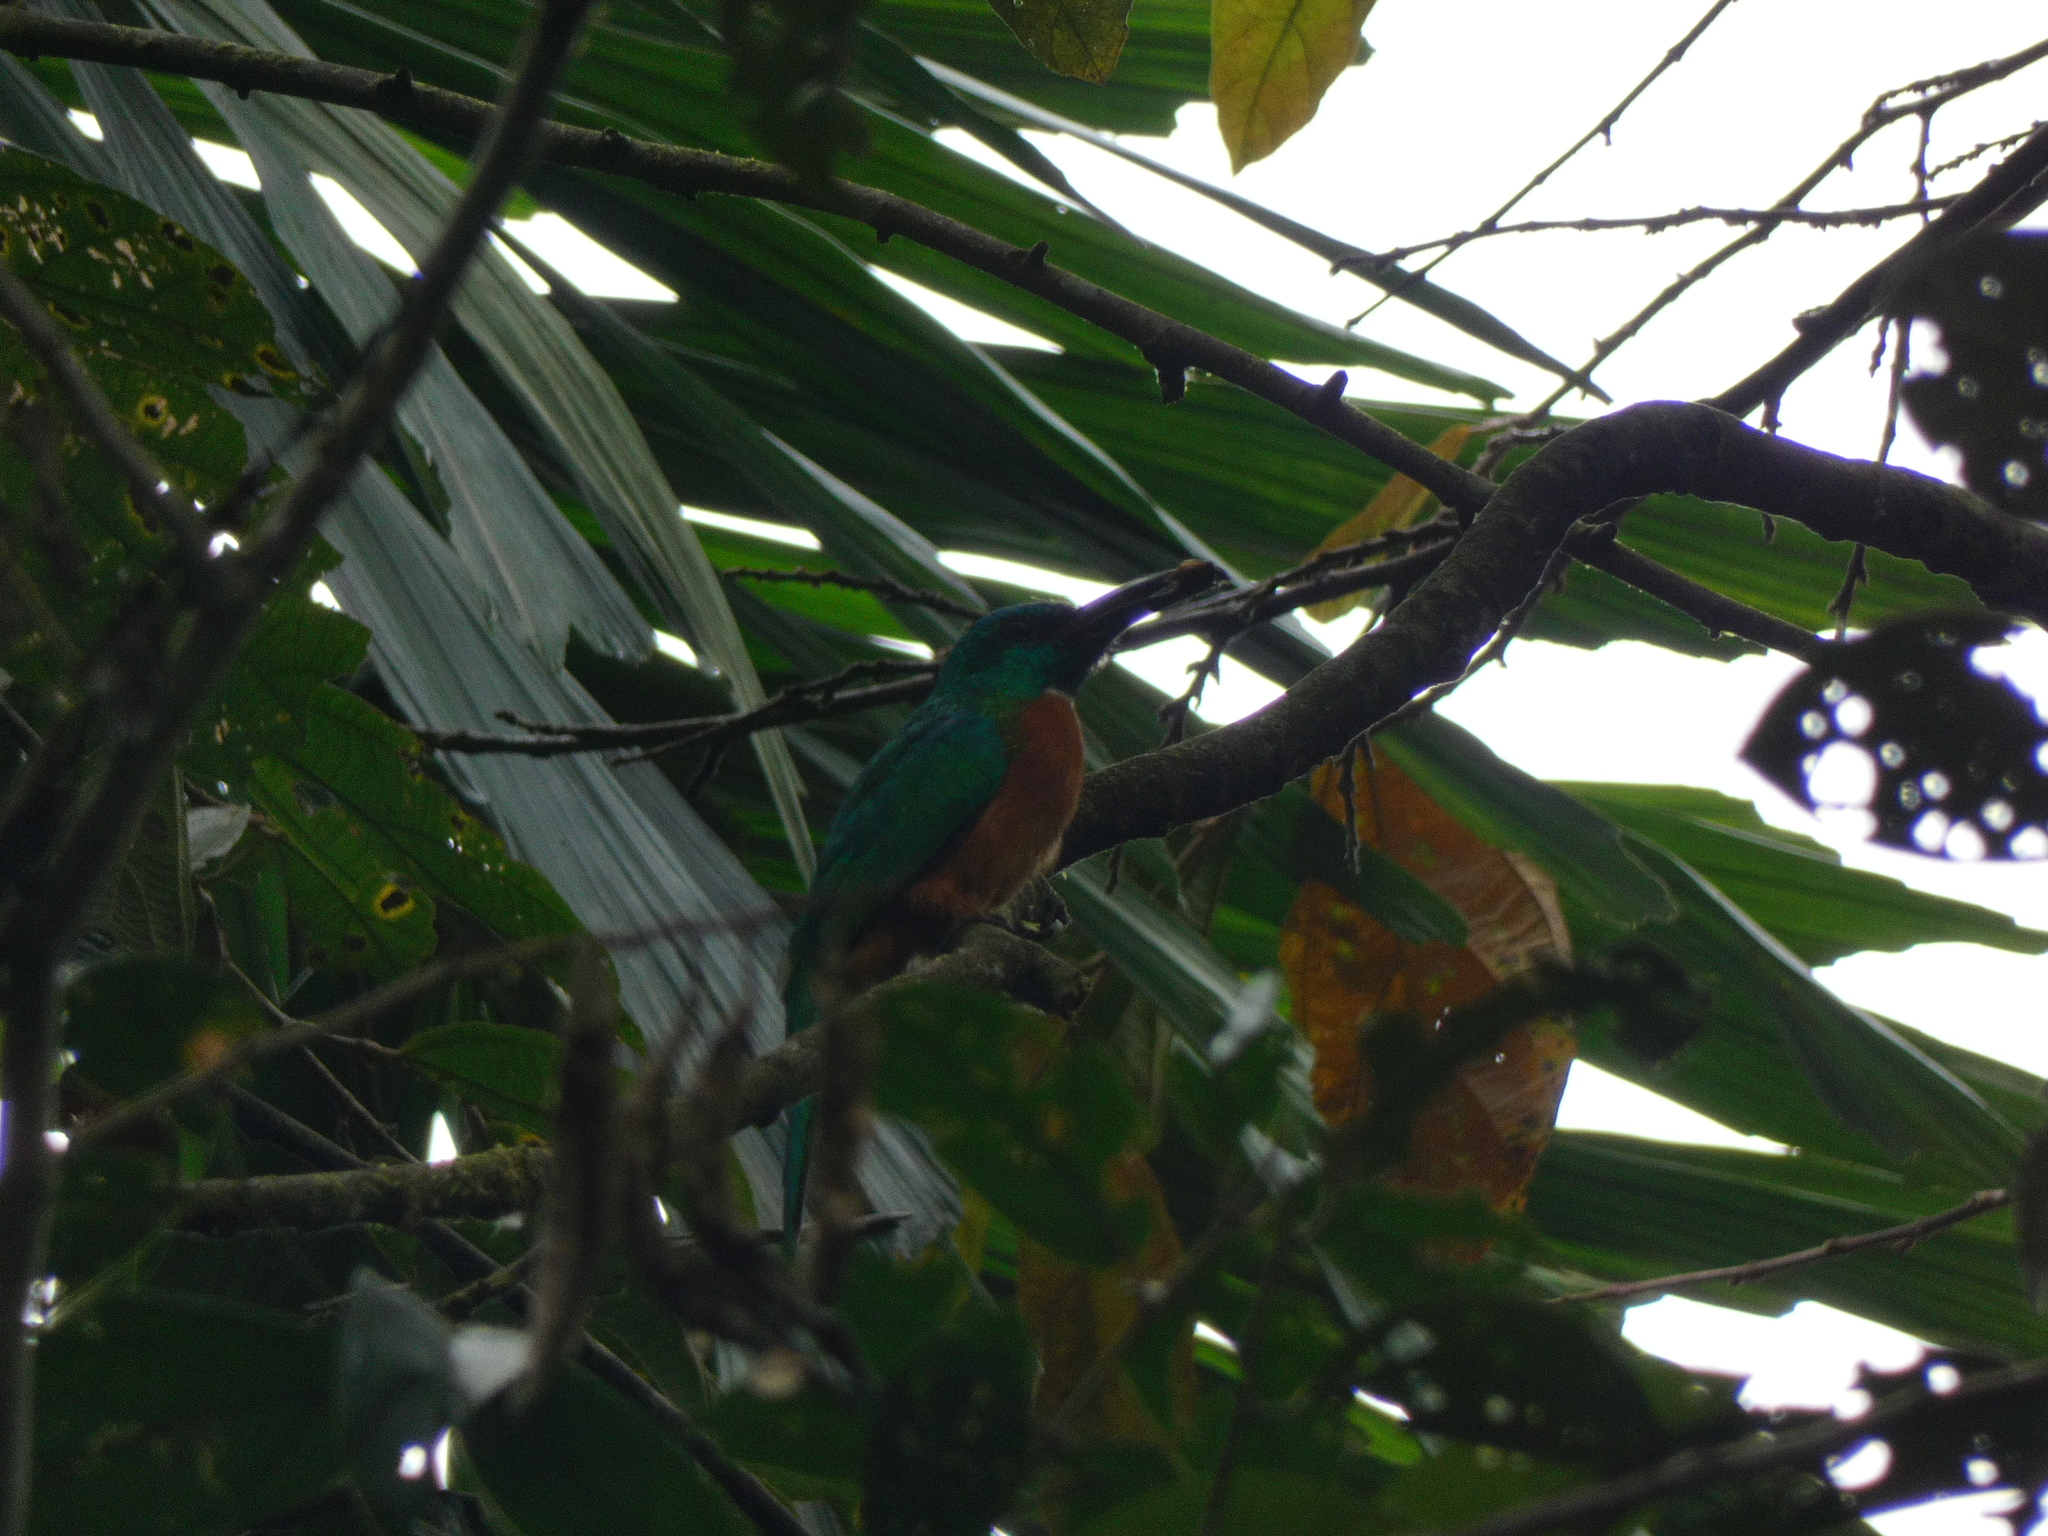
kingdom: Animalia
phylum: Chordata
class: Aves
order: Piciformes
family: Galbulidae
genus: Jacamerops
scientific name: Jacamerops aureus
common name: Great jacamar
